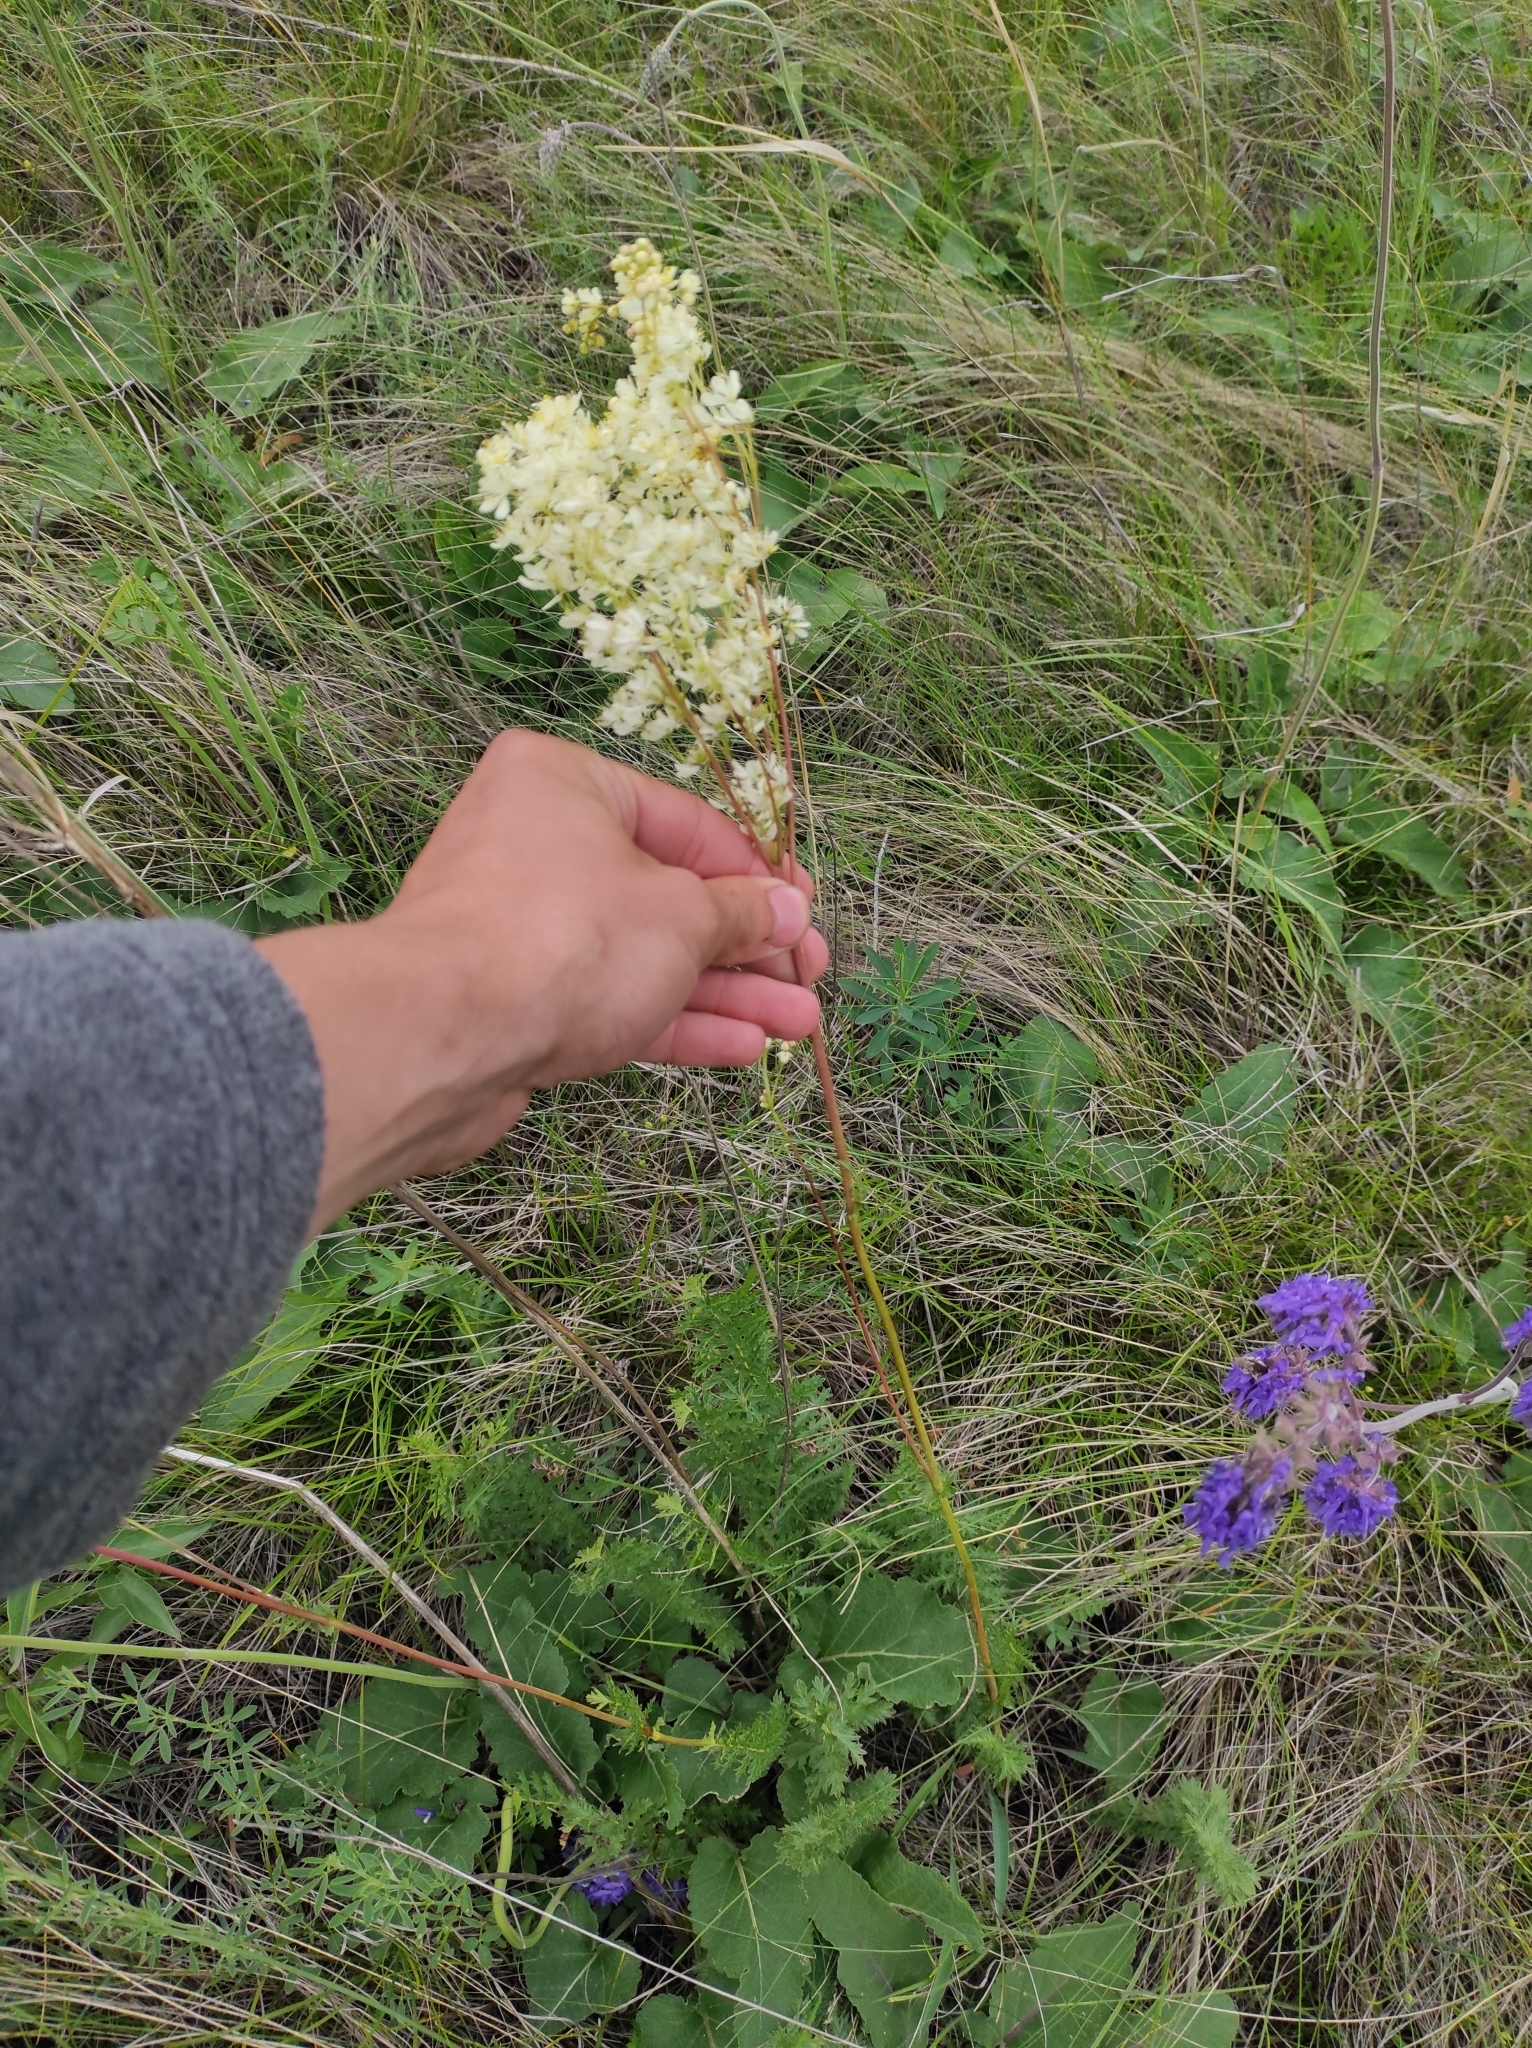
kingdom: Plantae
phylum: Tracheophyta
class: Magnoliopsida
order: Rosales
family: Rosaceae
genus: Filipendula
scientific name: Filipendula vulgaris
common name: Dropwort
